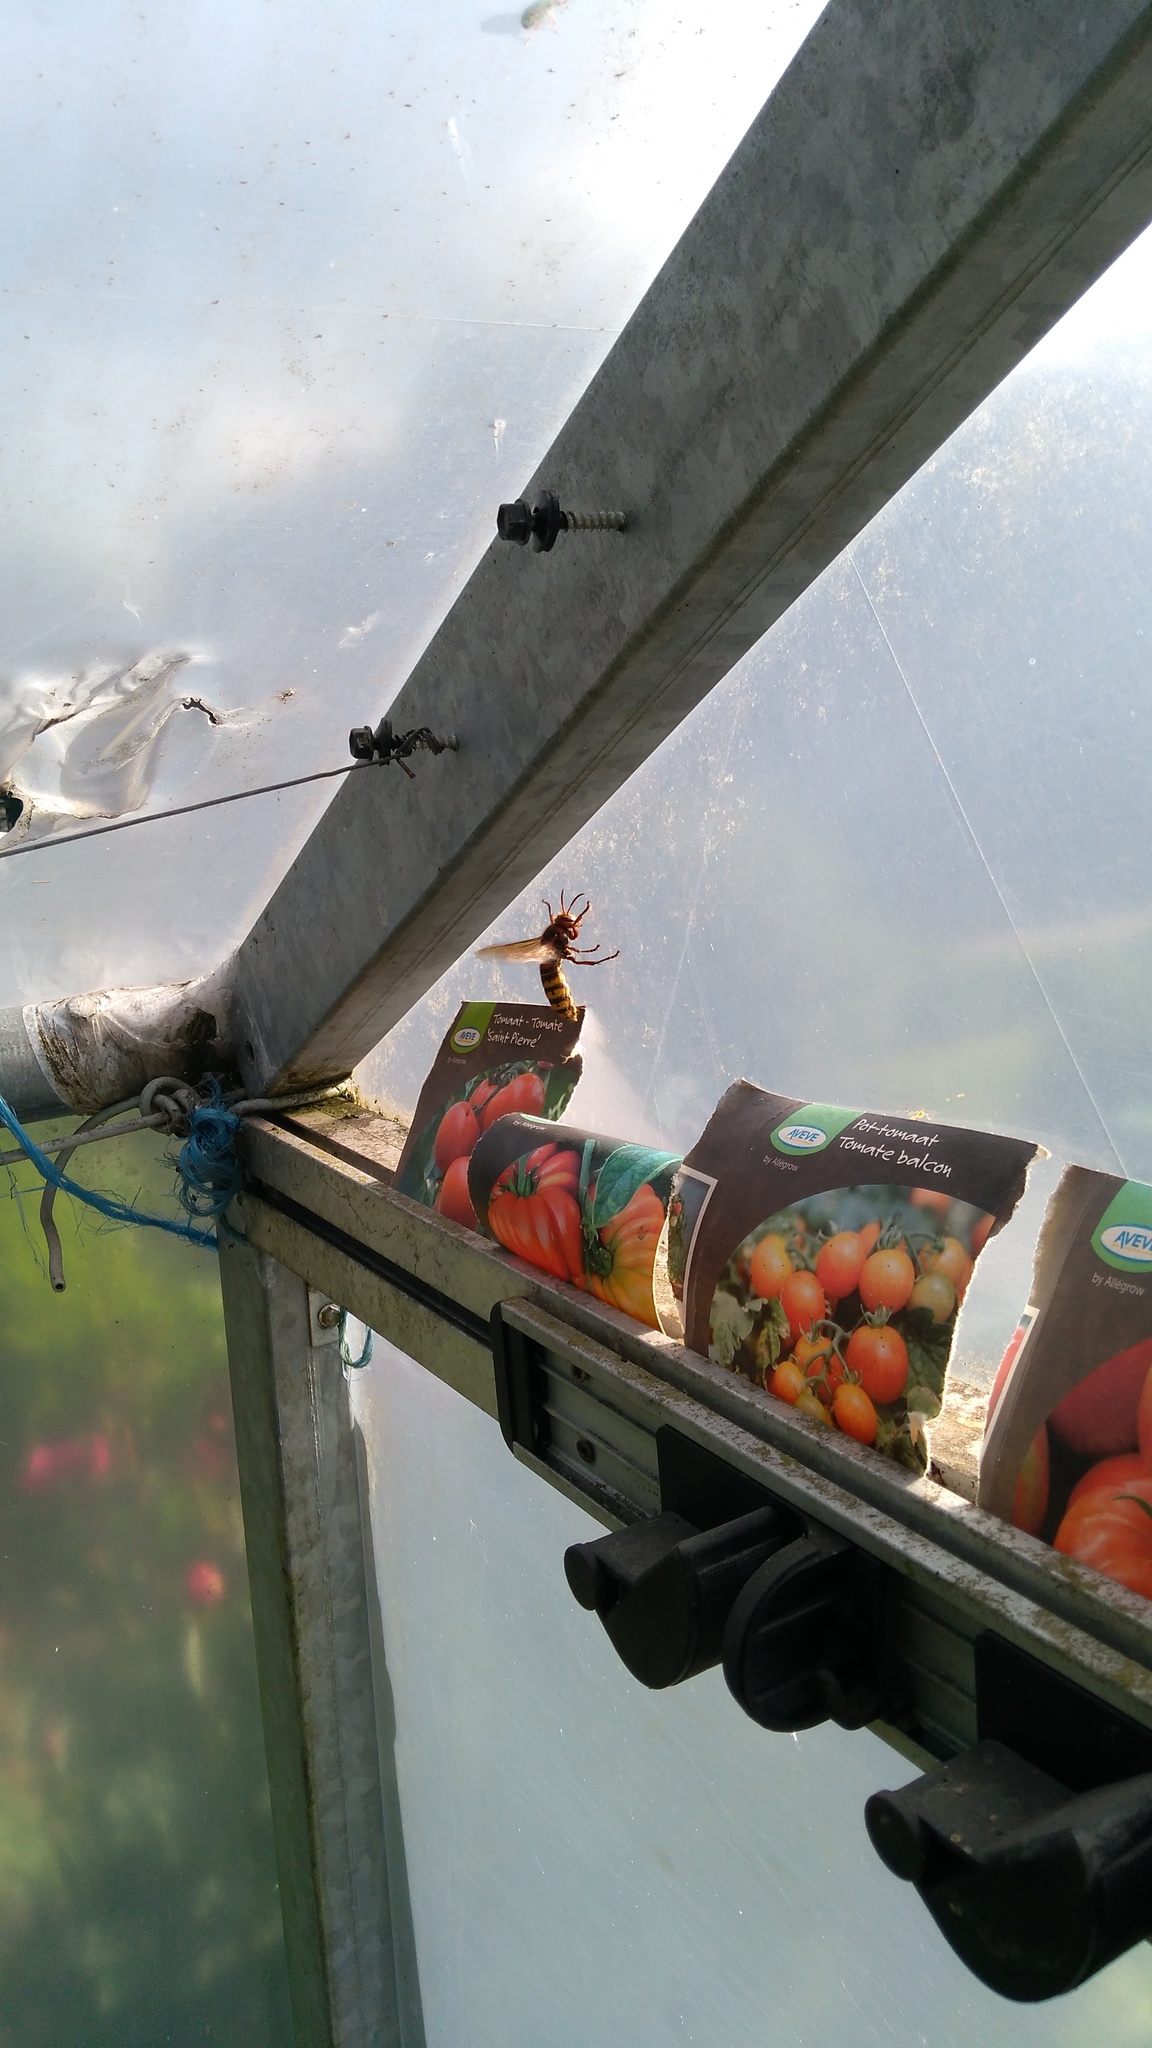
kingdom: Animalia
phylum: Arthropoda
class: Insecta
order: Hymenoptera
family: Vespidae
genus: Vespa
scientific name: Vespa crabro
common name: Hornet
